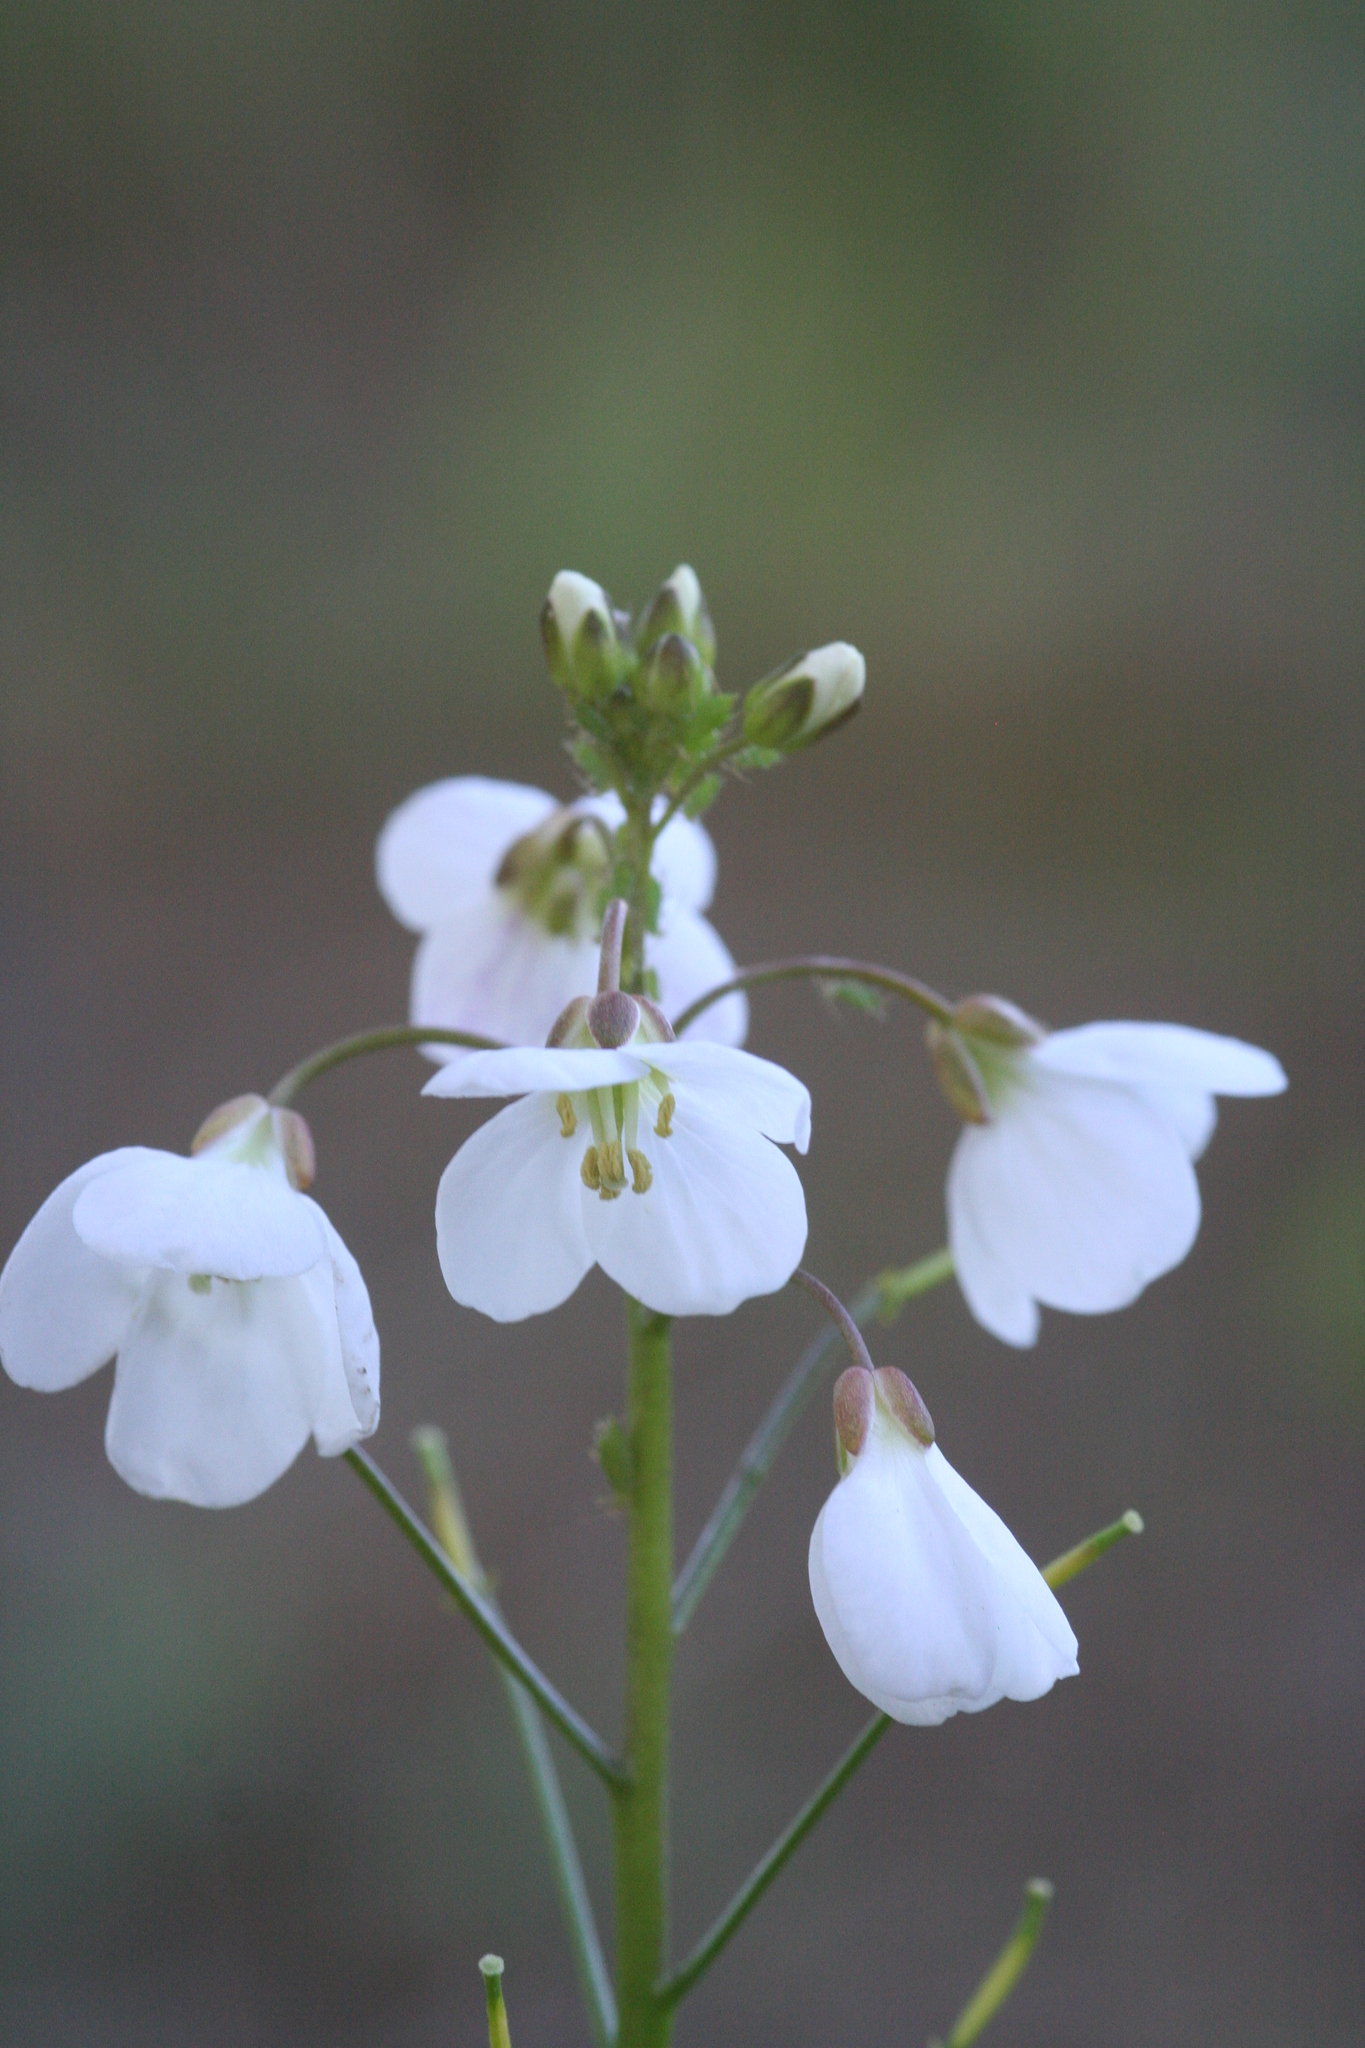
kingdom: Plantae
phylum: Tracheophyta
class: Magnoliopsida
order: Brassicales
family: Brassicaceae
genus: Cardamine
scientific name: Cardamine californica
